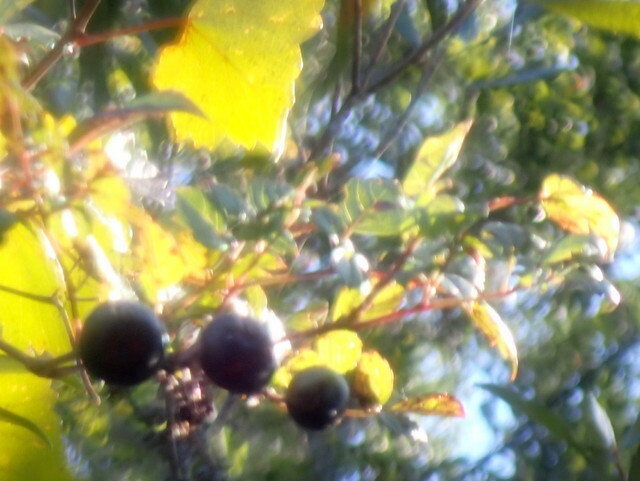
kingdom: Plantae
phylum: Tracheophyta
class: Magnoliopsida
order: Vitales
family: Vitaceae
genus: Nekemias
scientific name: Nekemias arborea
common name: Peppervine
